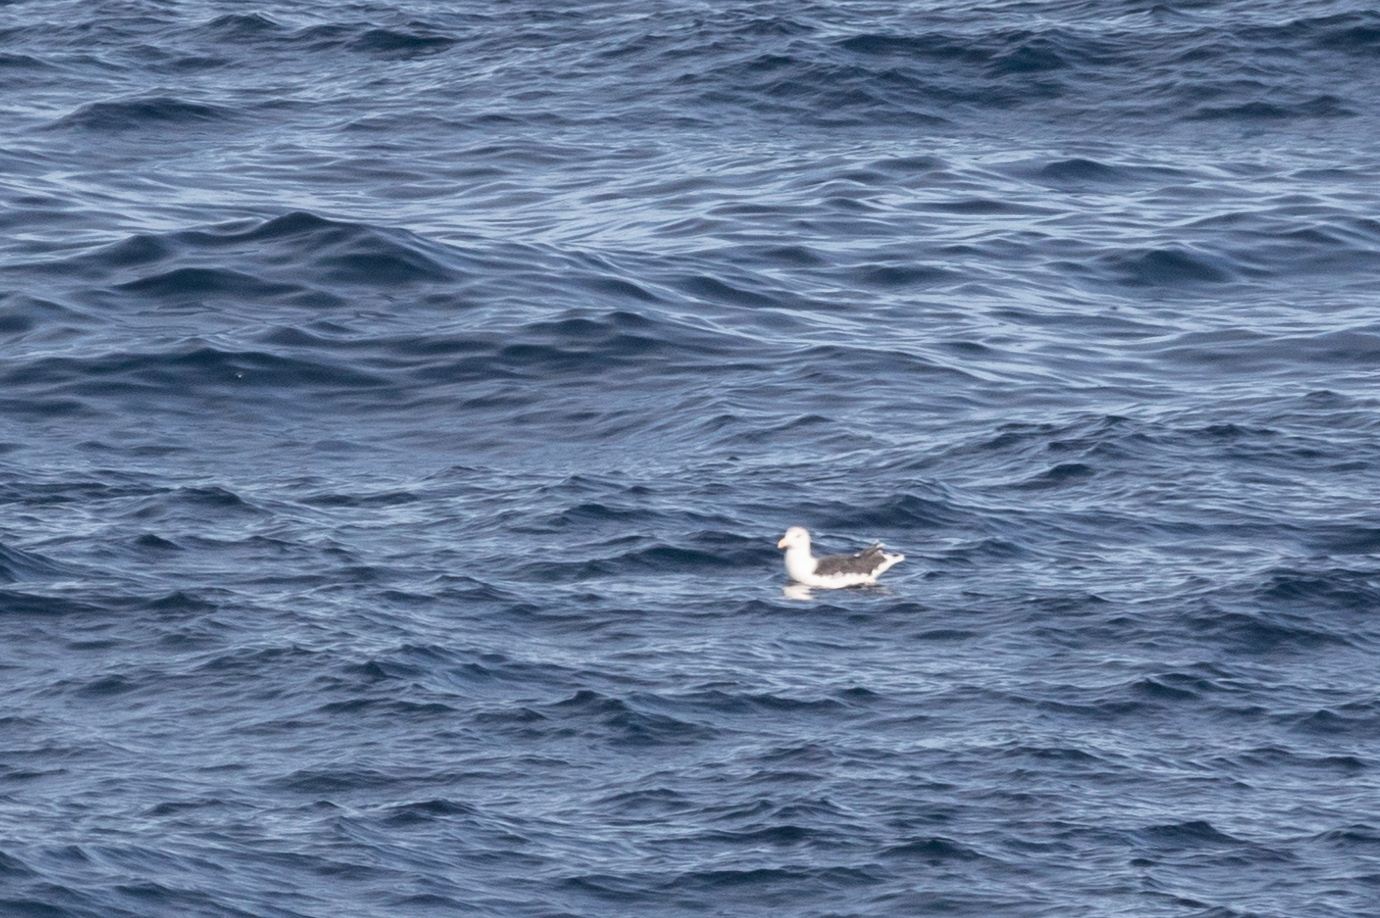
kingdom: Animalia
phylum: Chordata
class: Aves
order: Charadriiformes
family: Laridae
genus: Larus
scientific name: Larus marinus
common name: Great black-backed gull
